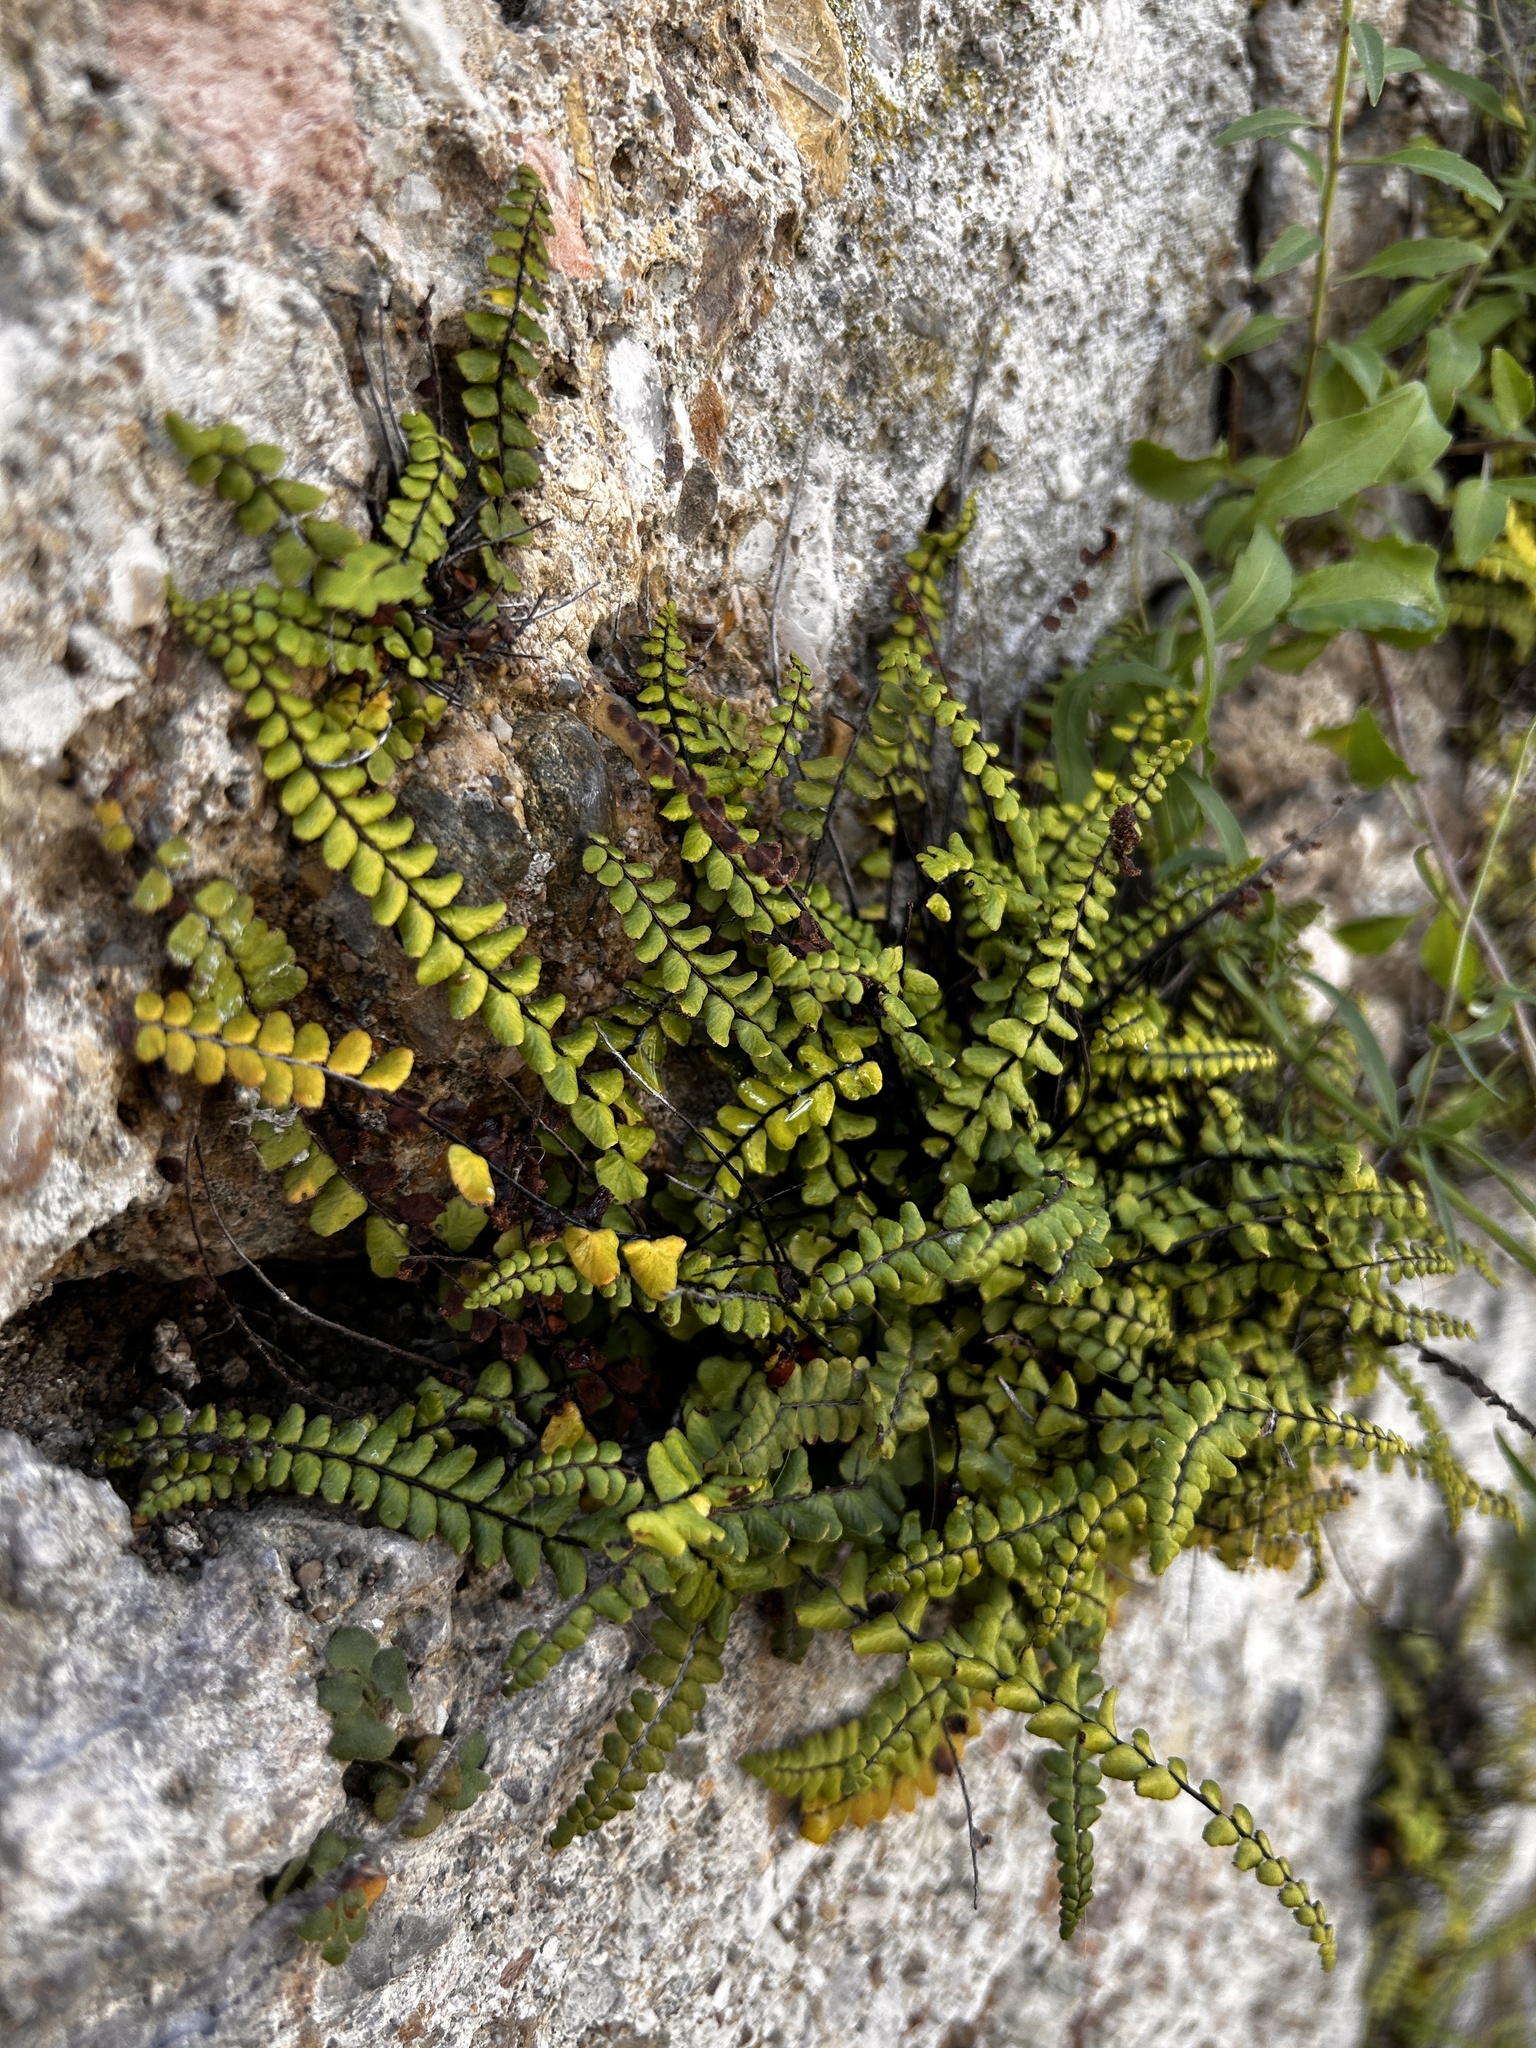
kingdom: Plantae
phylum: Tracheophyta
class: Polypodiopsida
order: Polypodiales
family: Aspleniaceae
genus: Asplenium
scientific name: Asplenium trichomanes
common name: Maidenhair spleenwort
